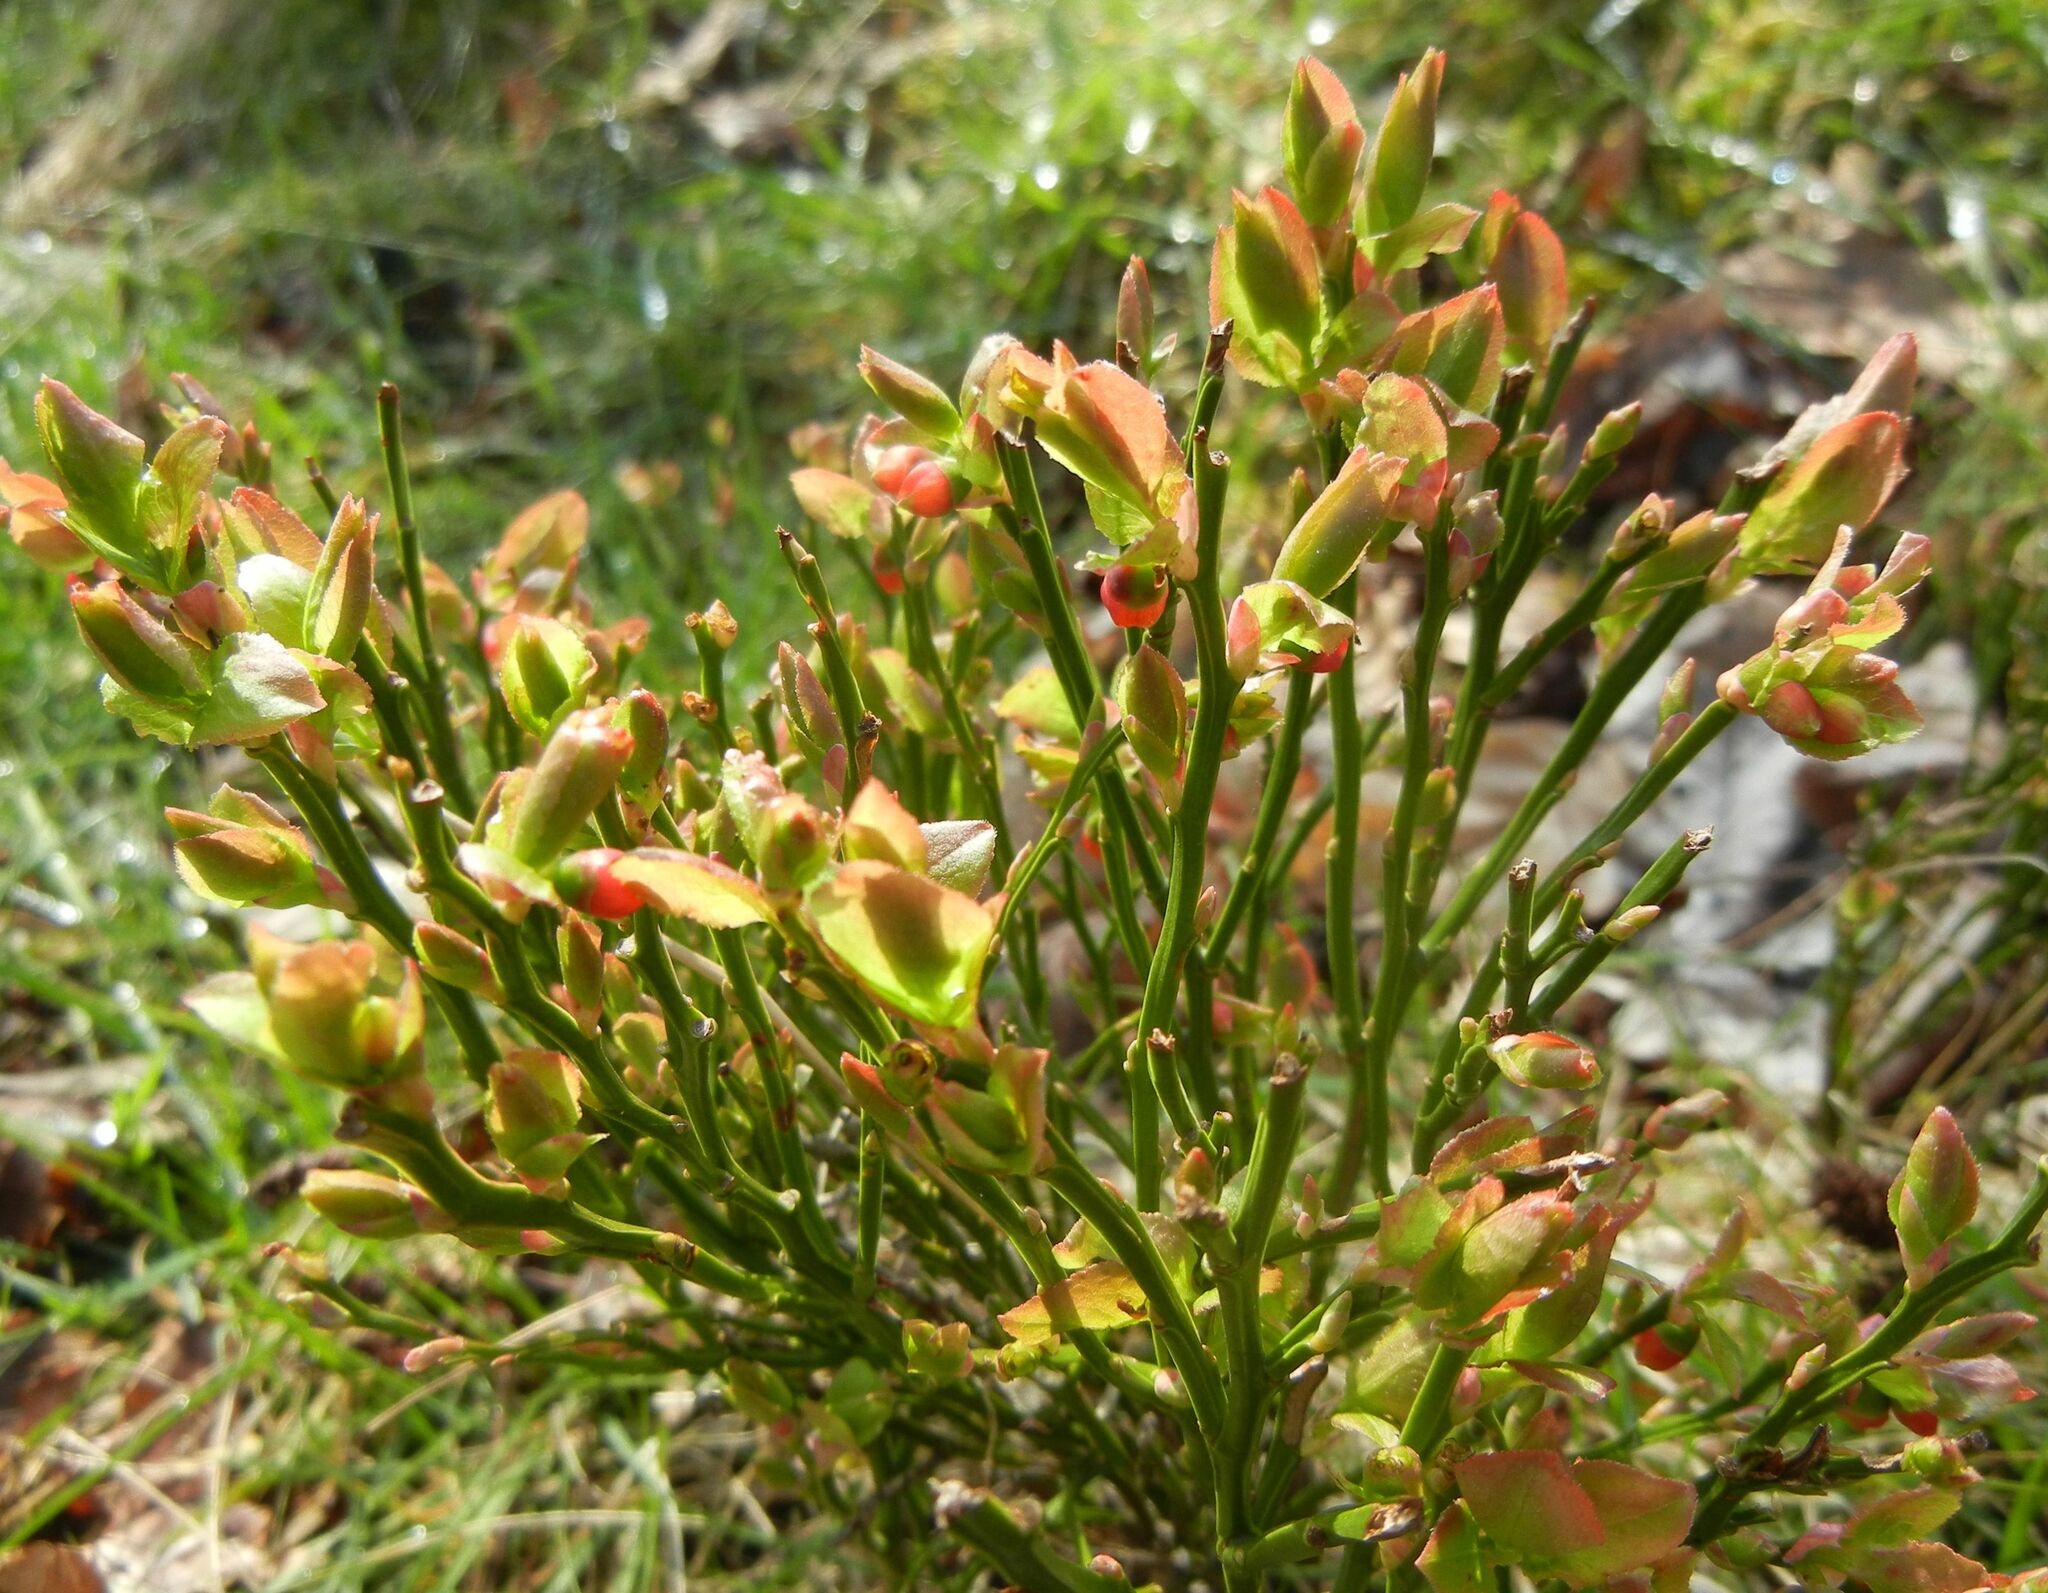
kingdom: Plantae
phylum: Tracheophyta
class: Magnoliopsida
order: Ericales
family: Ericaceae
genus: Vaccinium
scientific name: Vaccinium myrtillus
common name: Bilberry
